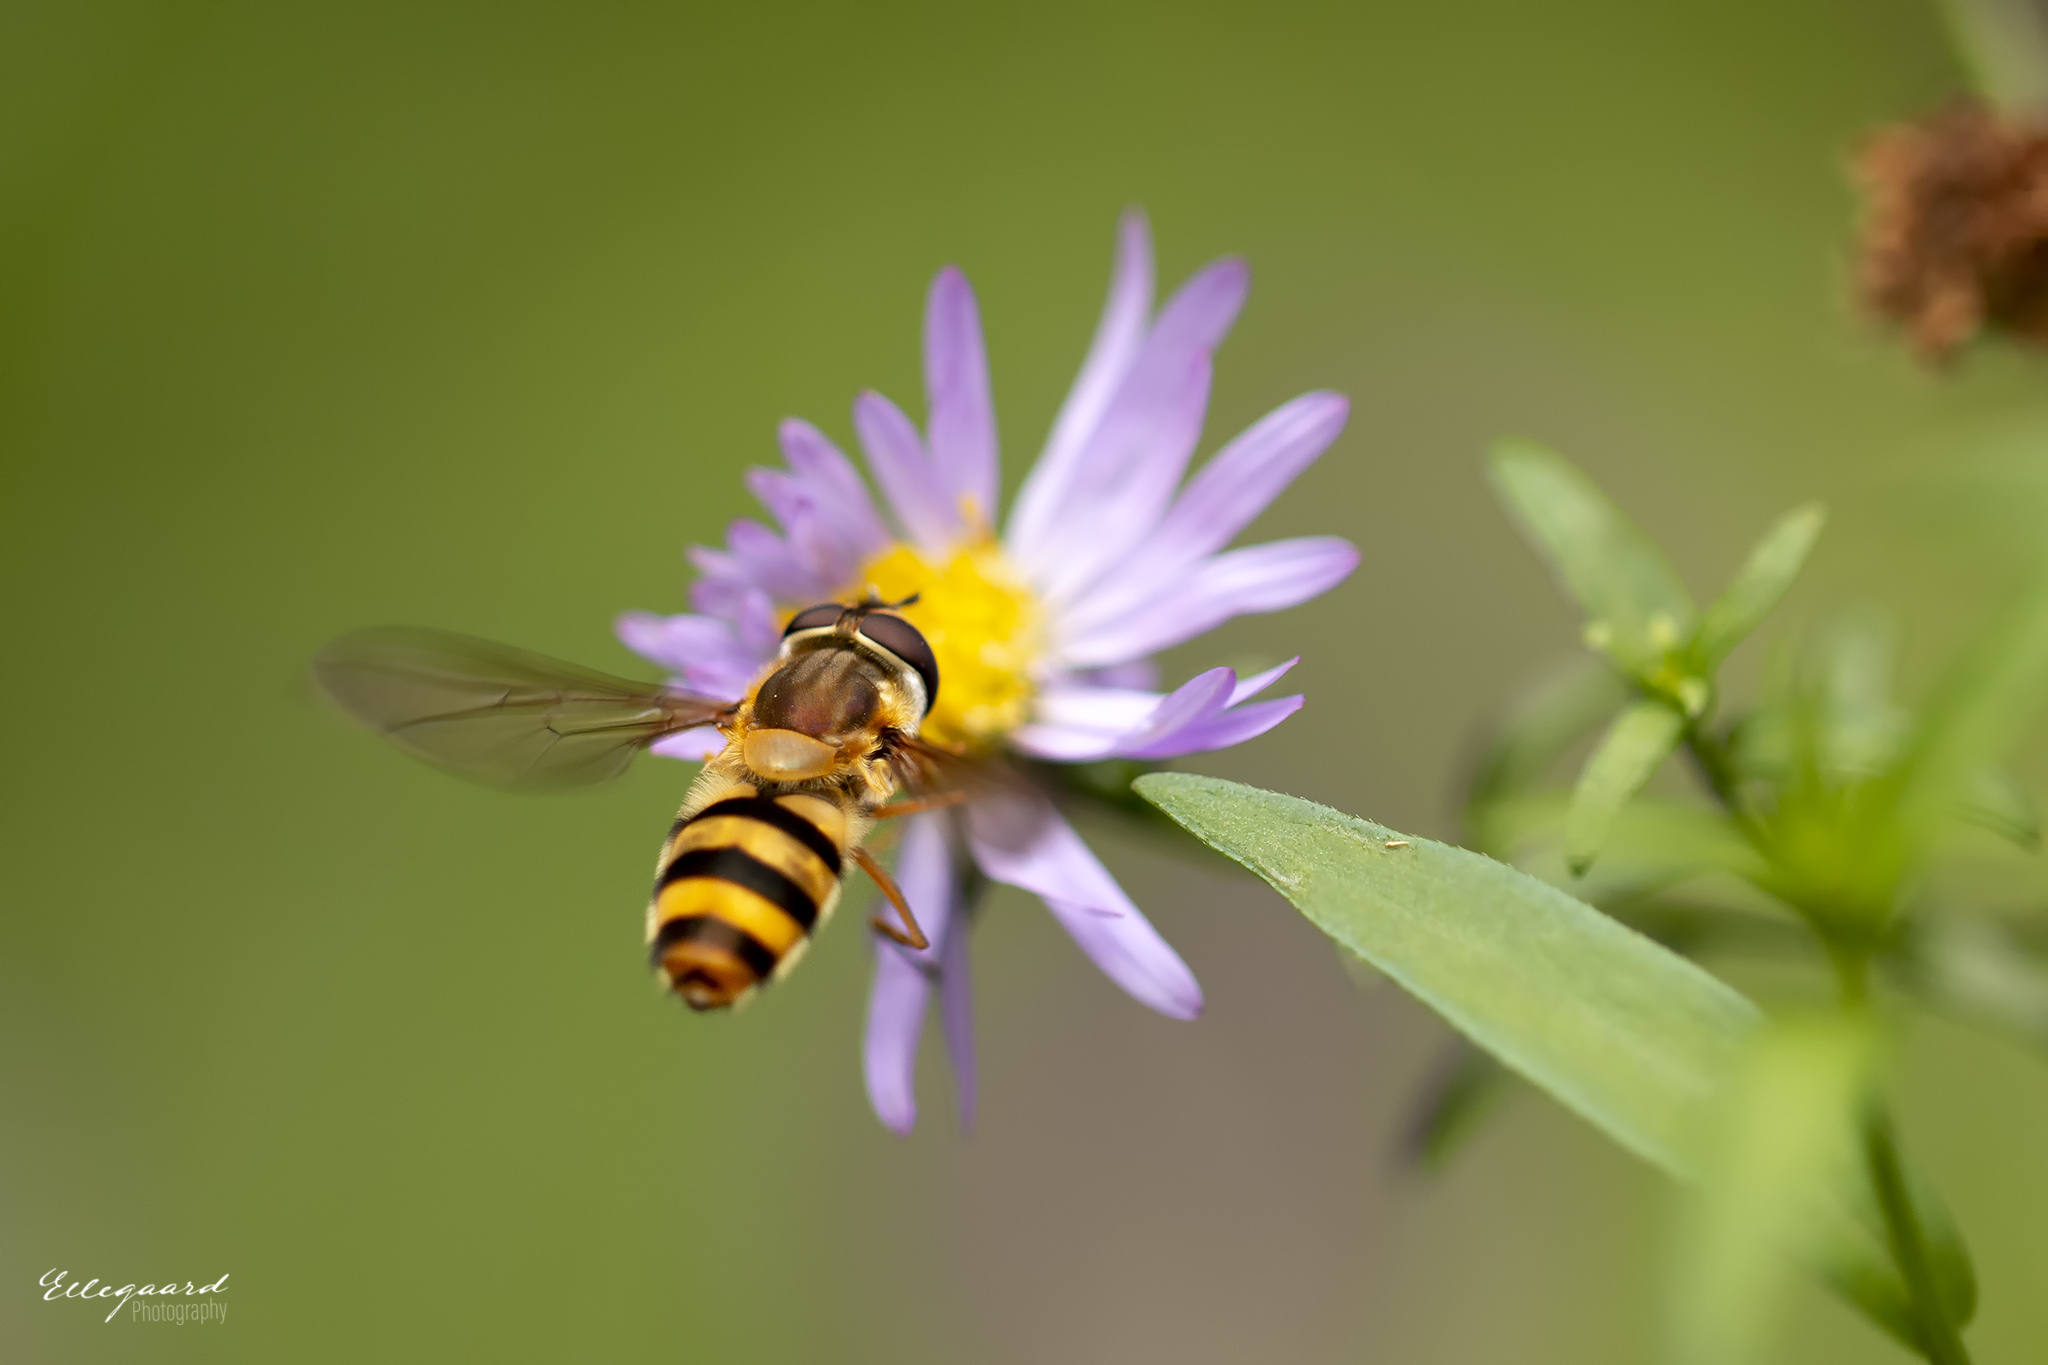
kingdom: Animalia
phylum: Arthropoda
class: Insecta
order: Diptera
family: Syrphidae
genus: Epistrophe
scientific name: Epistrophe grossulariae
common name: Black-horned smoothtail
